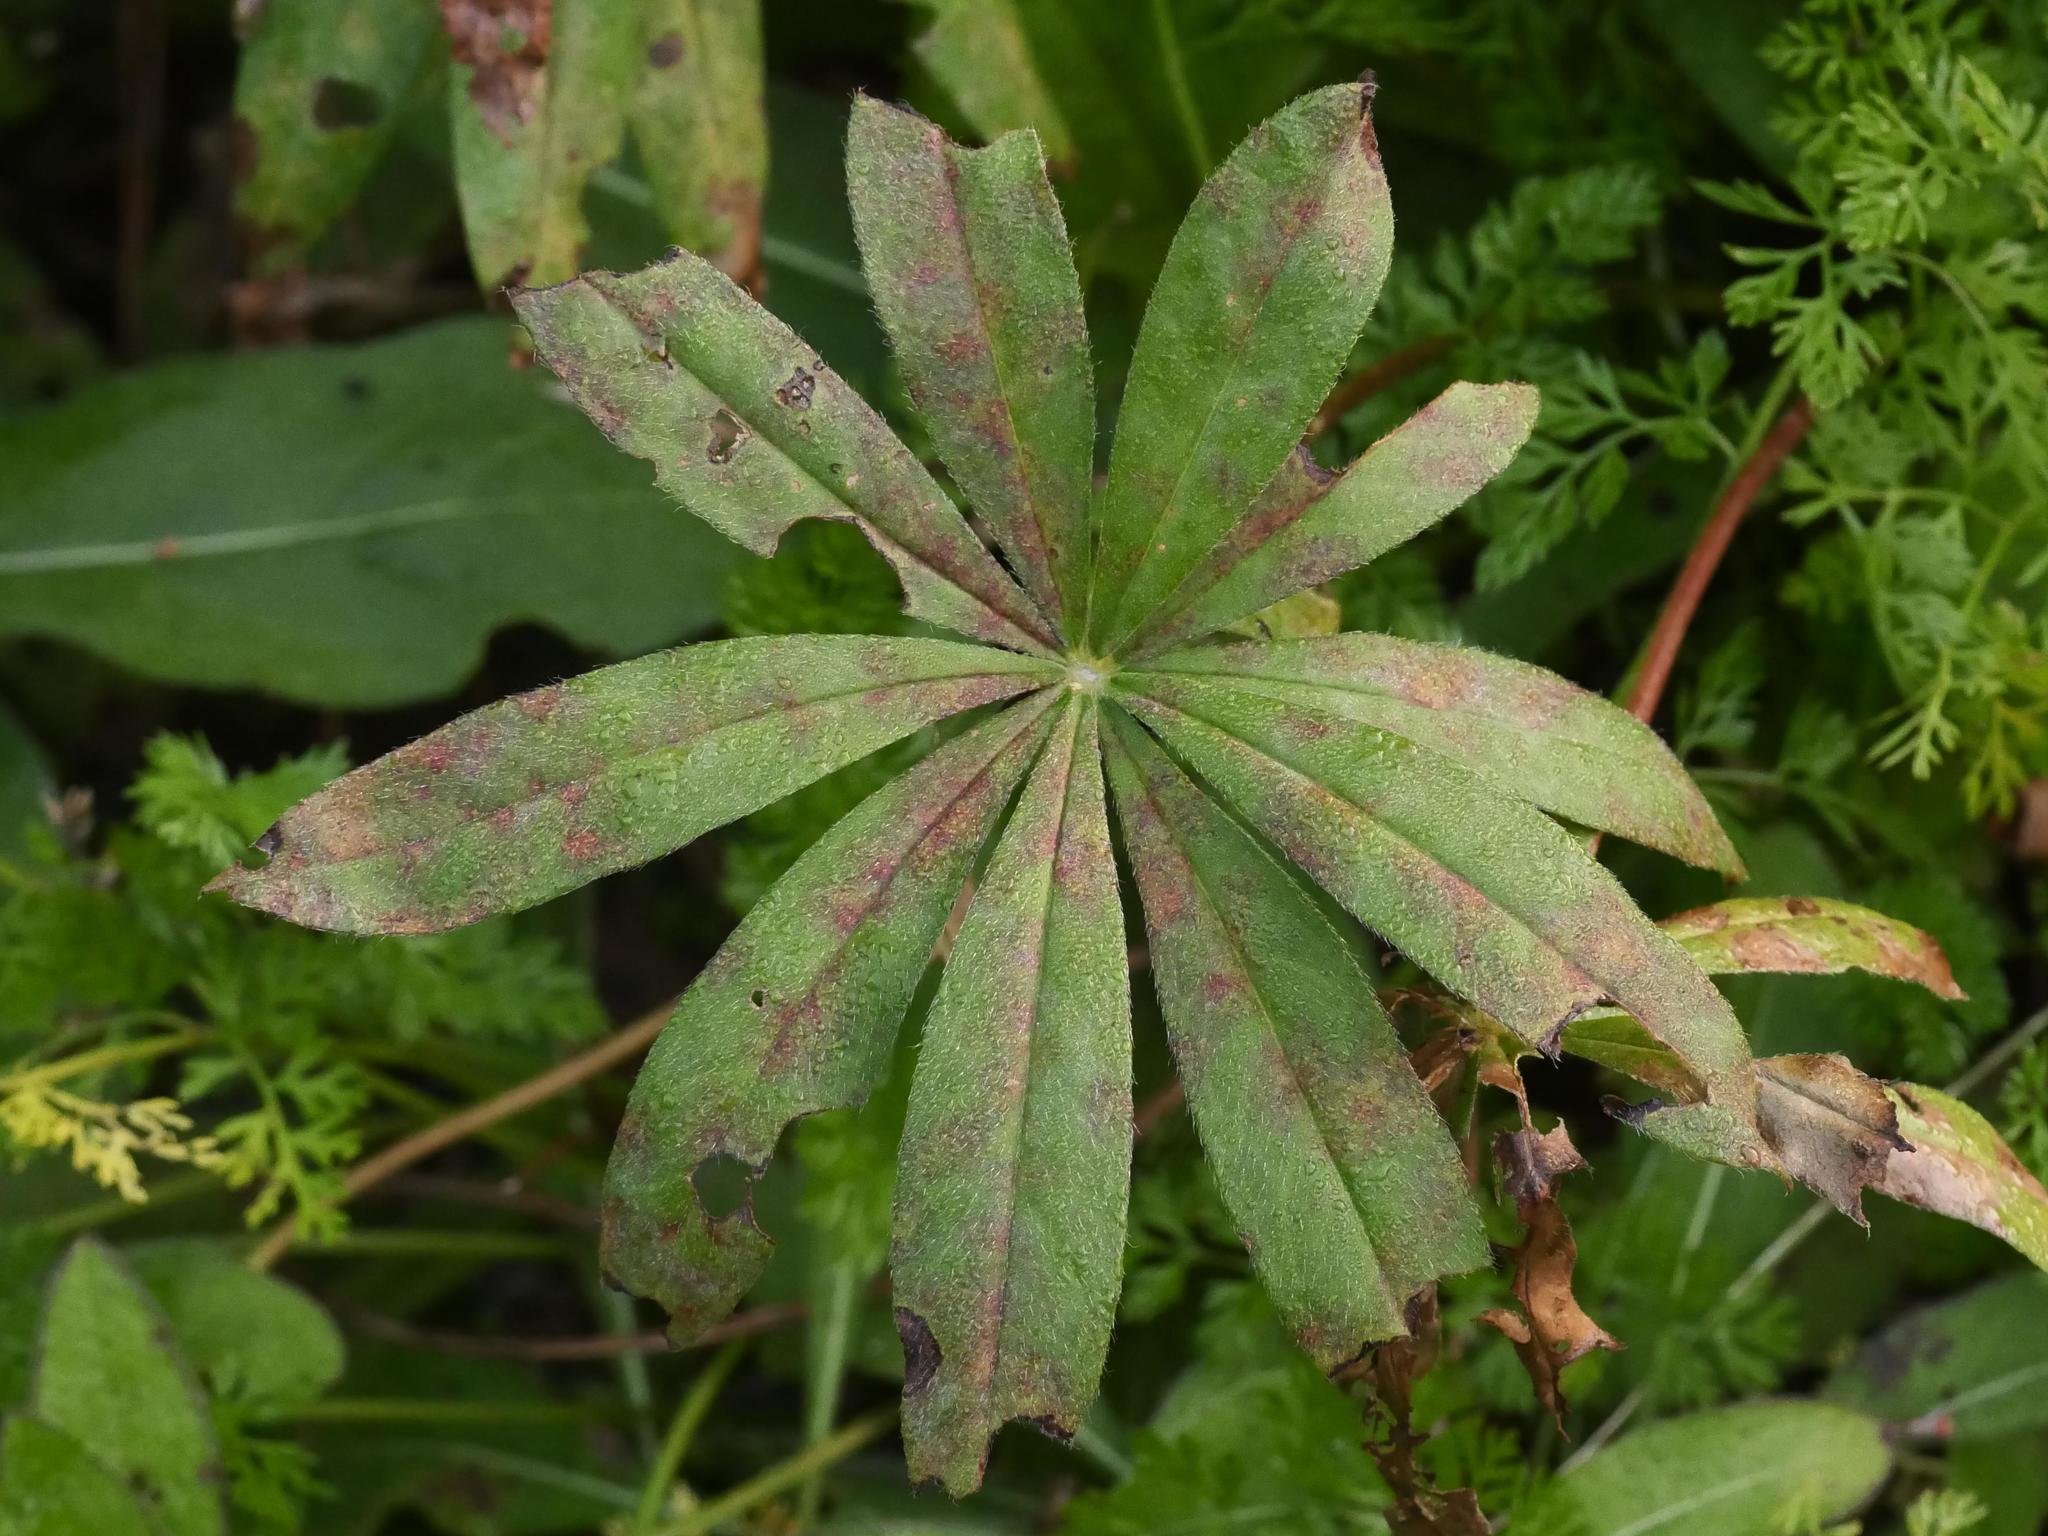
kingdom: Plantae
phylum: Tracheophyta
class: Magnoliopsida
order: Fabales
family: Fabaceae
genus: Lupinus
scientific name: Lupinus polyphyllus
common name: Garden lupin
